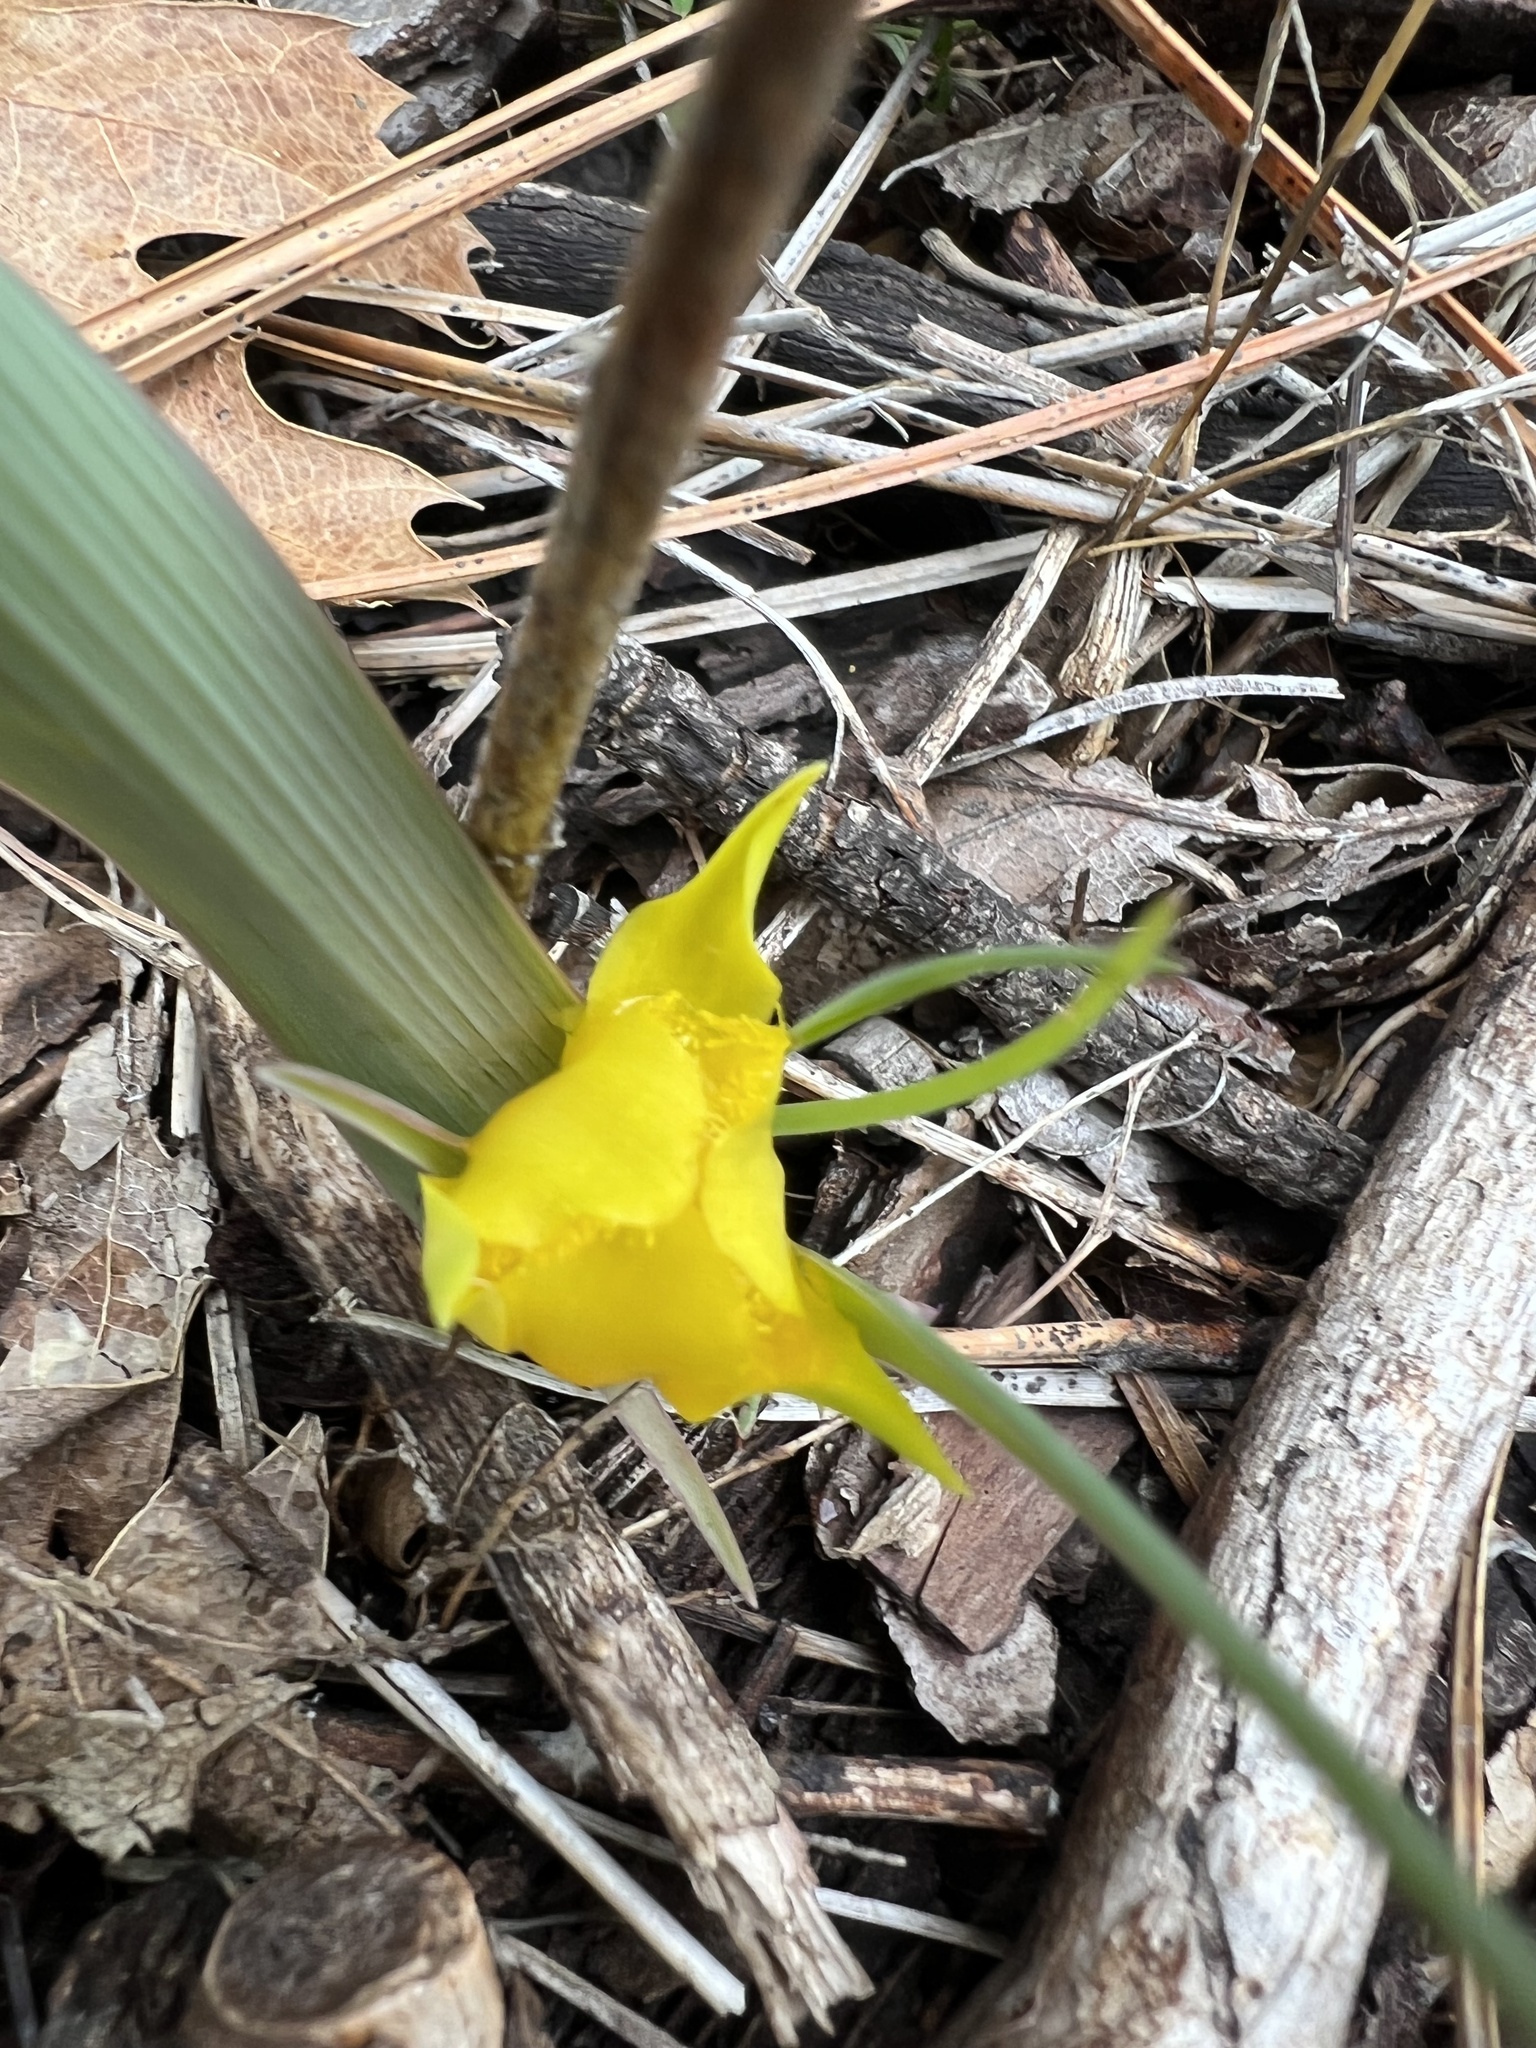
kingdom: Plantae
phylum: Tracheophyta
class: Liliopsida
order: Liliales
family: Liliaceae
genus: Calochortus
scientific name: Calochortus monophyllus
